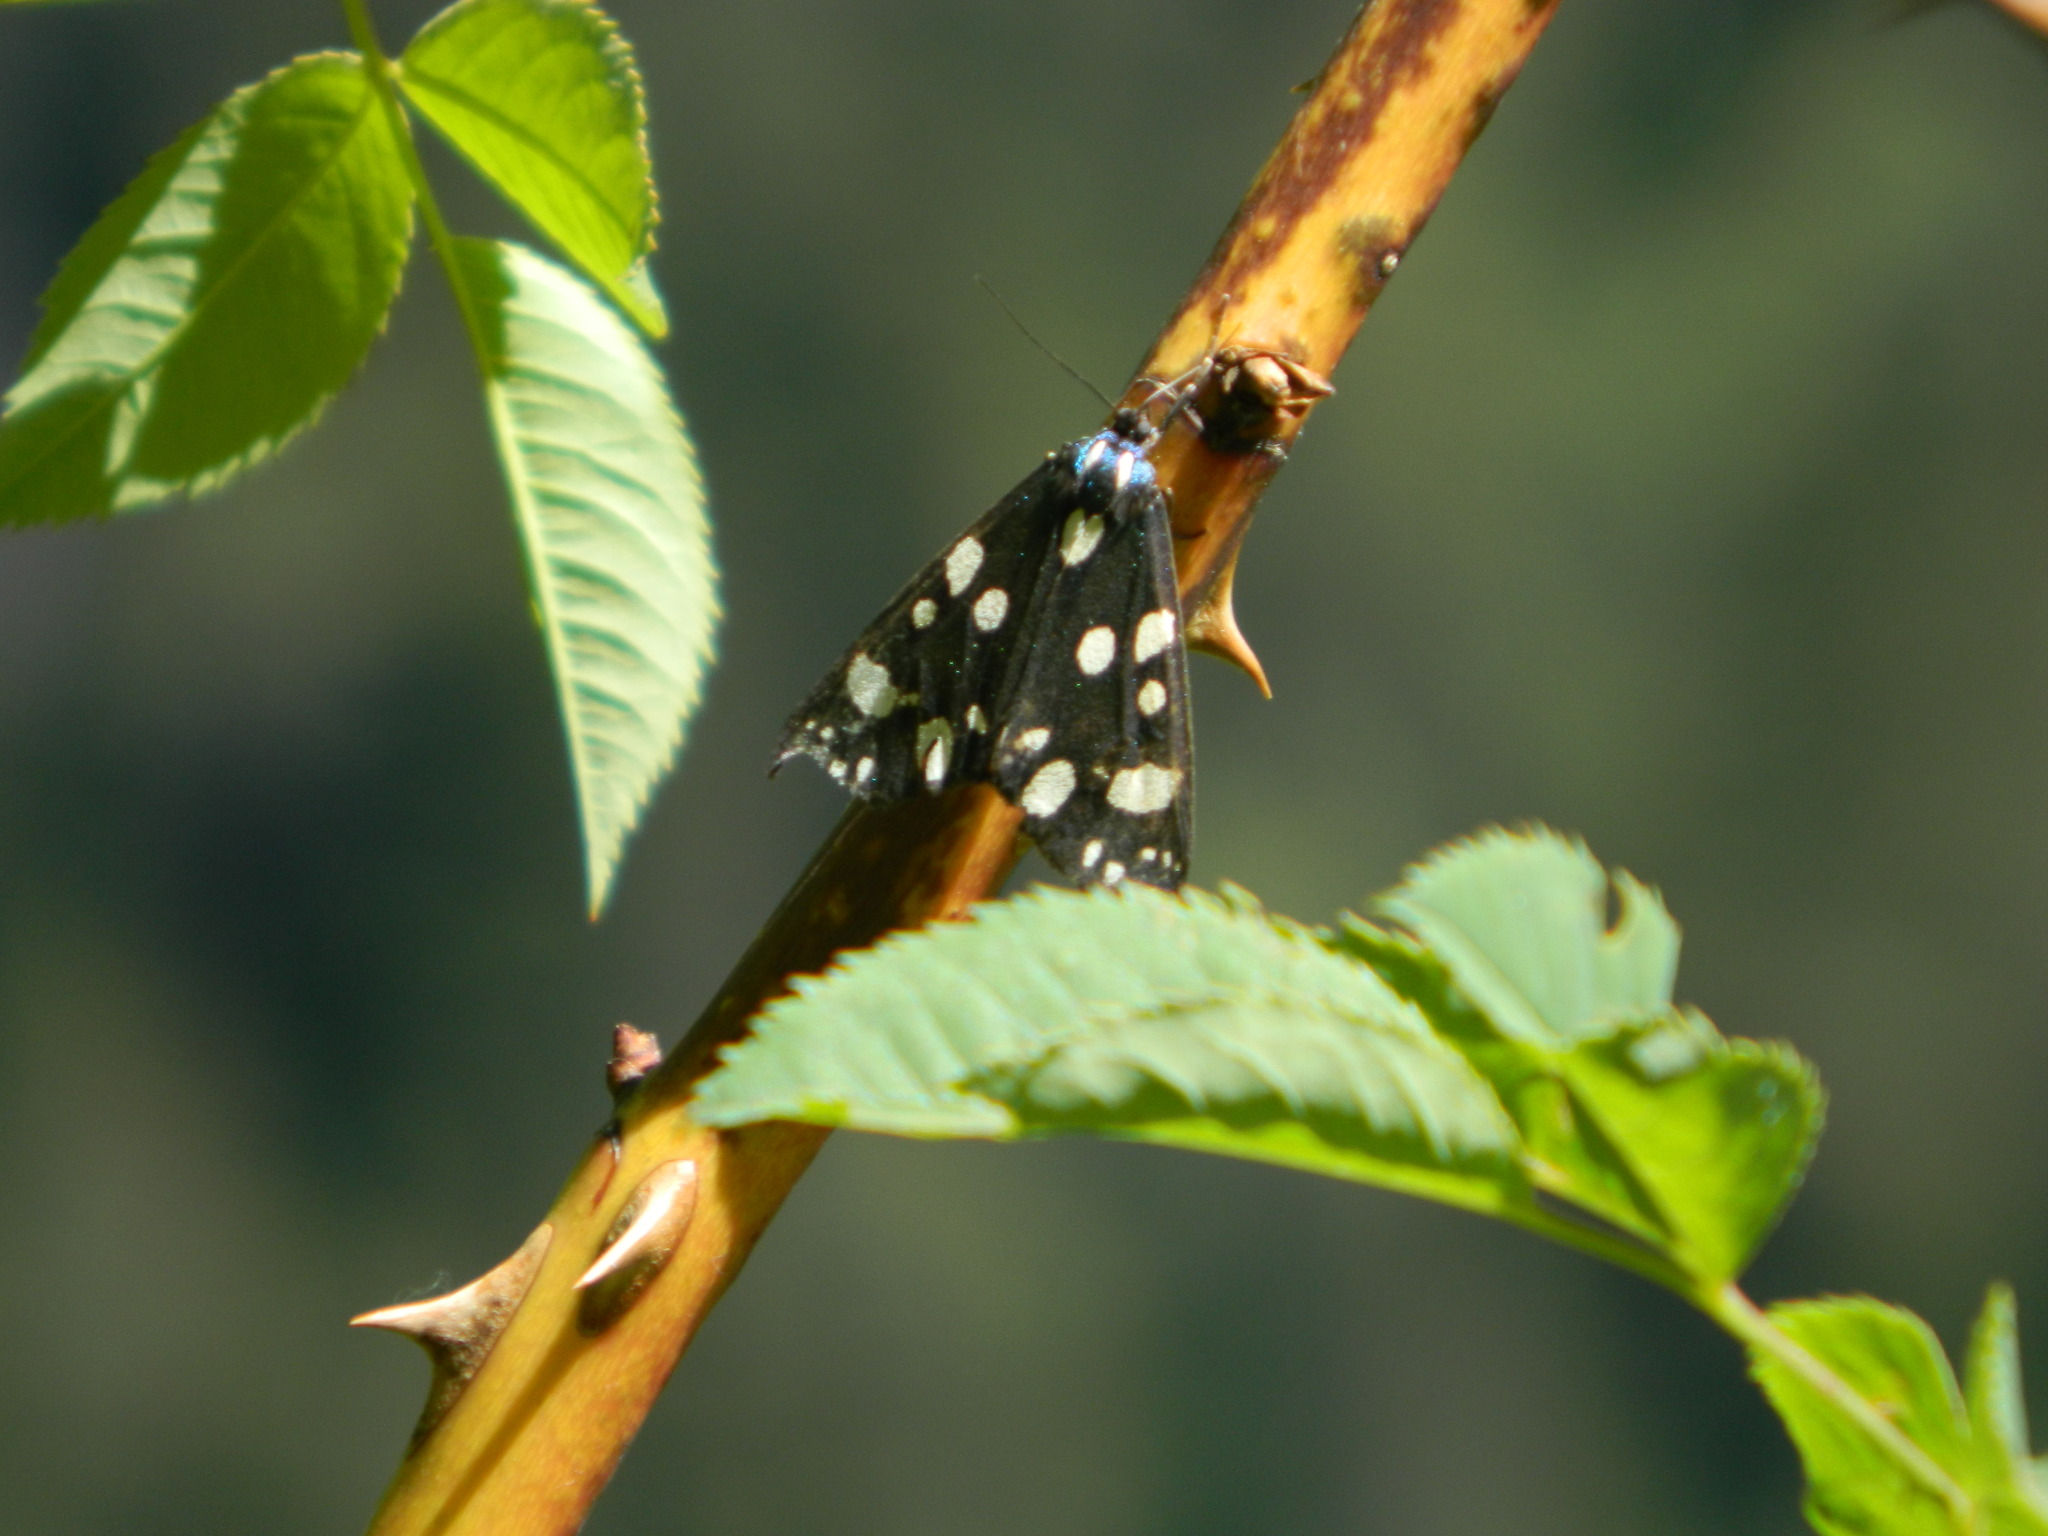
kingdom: Animalia
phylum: Arthropoda
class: Insecta
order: Lepidoptera
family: Erebidae
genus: Callimorpha
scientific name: Callimorpha dominula
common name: Scarlet tiger
